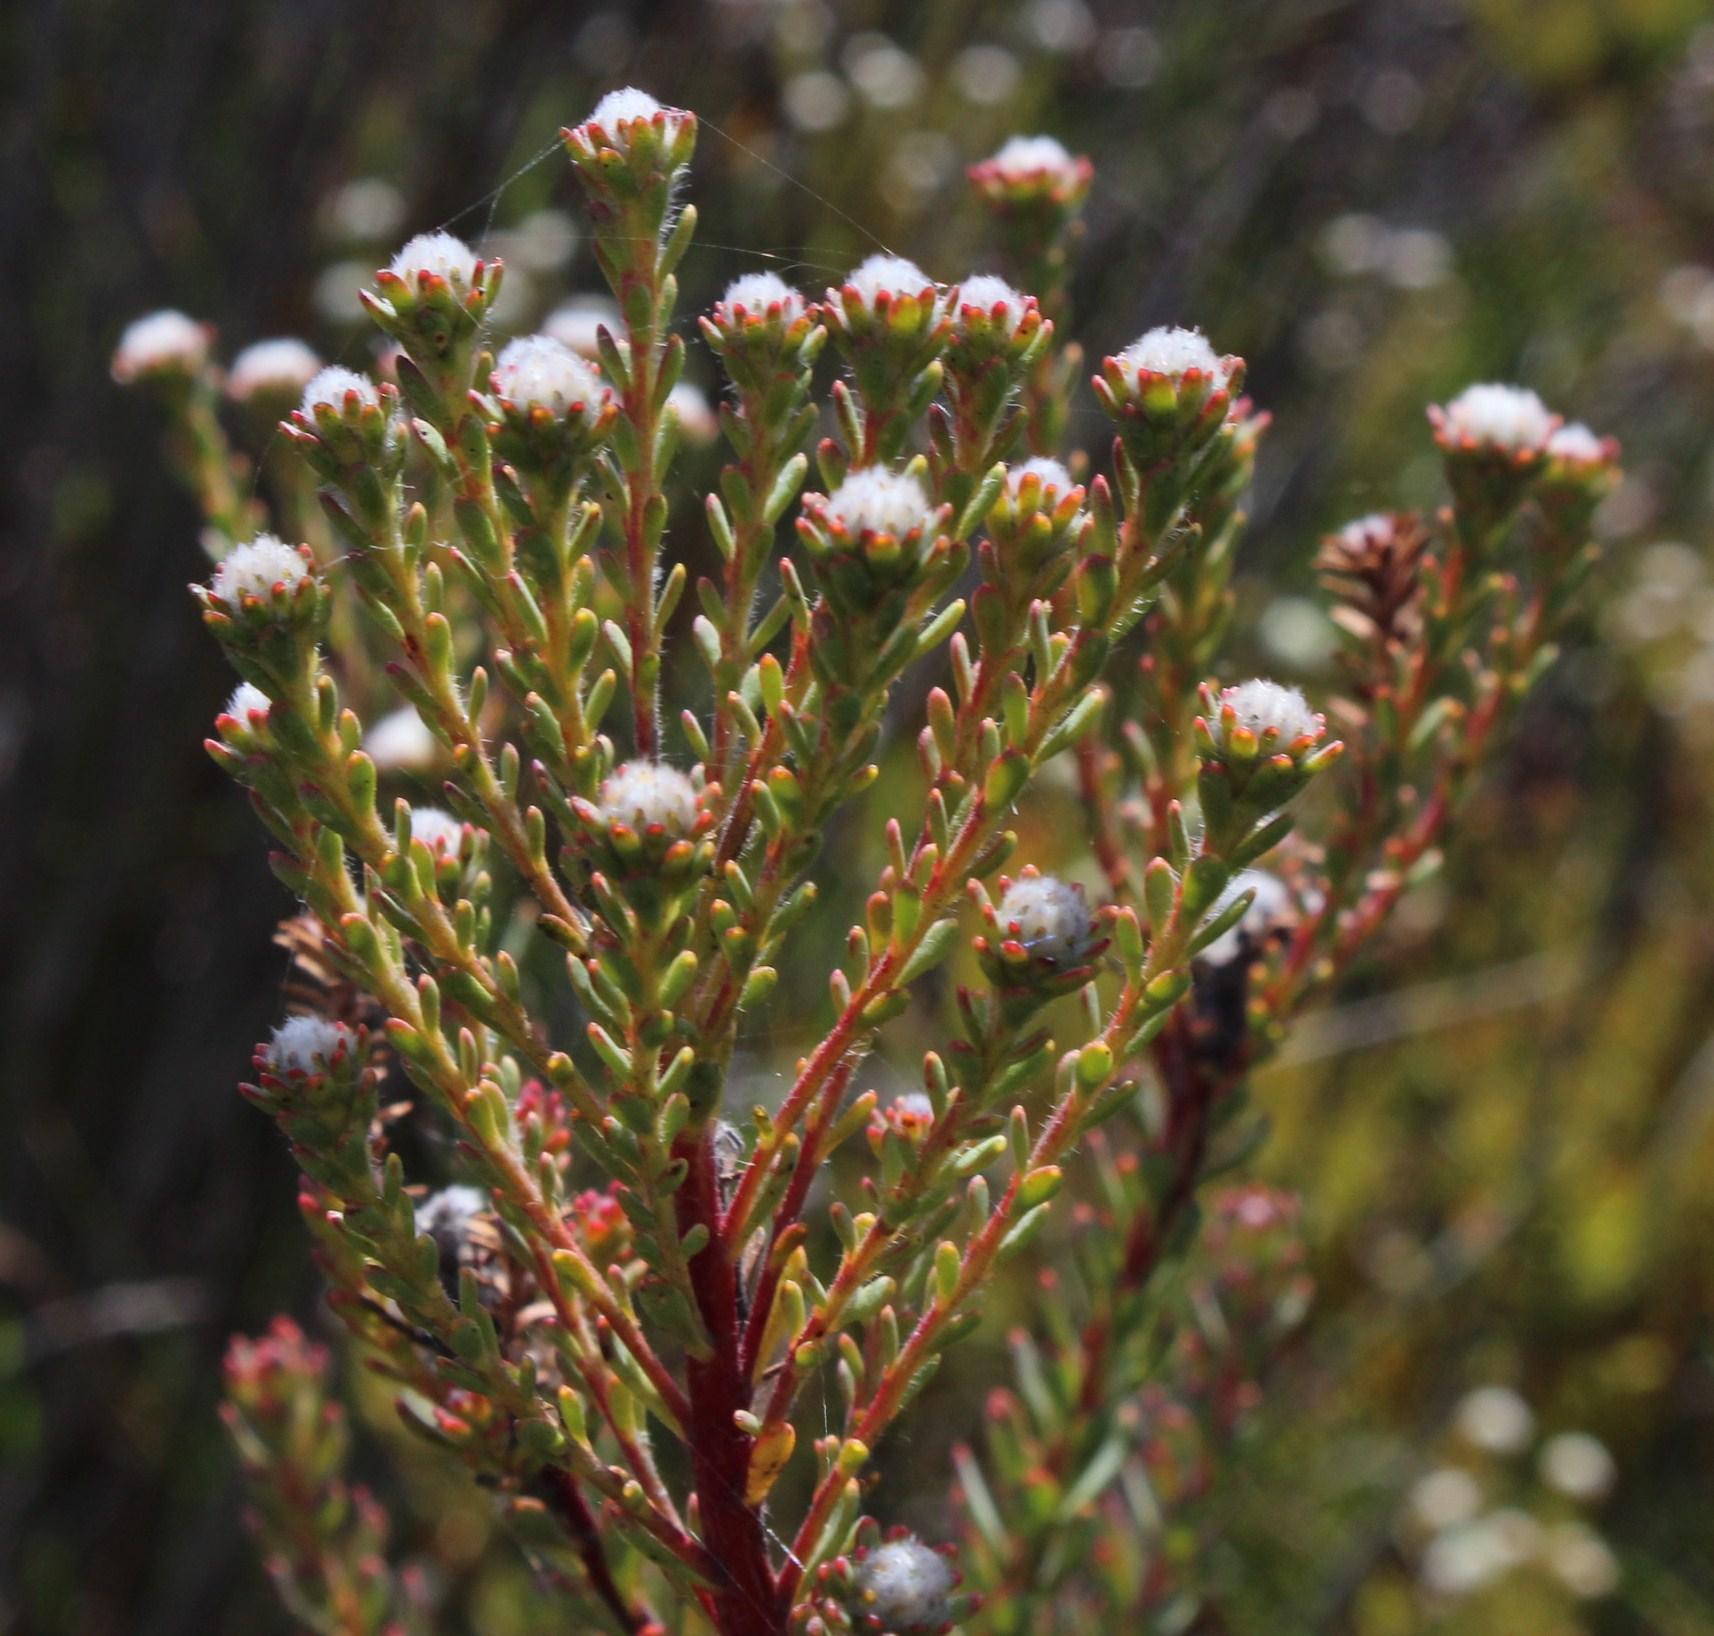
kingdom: Plantae
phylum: Tracheophyta
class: Magnoliopsida
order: Proteales
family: Proteaceae
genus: Leucadendron
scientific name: Leucadendron levisanus
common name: Cape flats conebush
